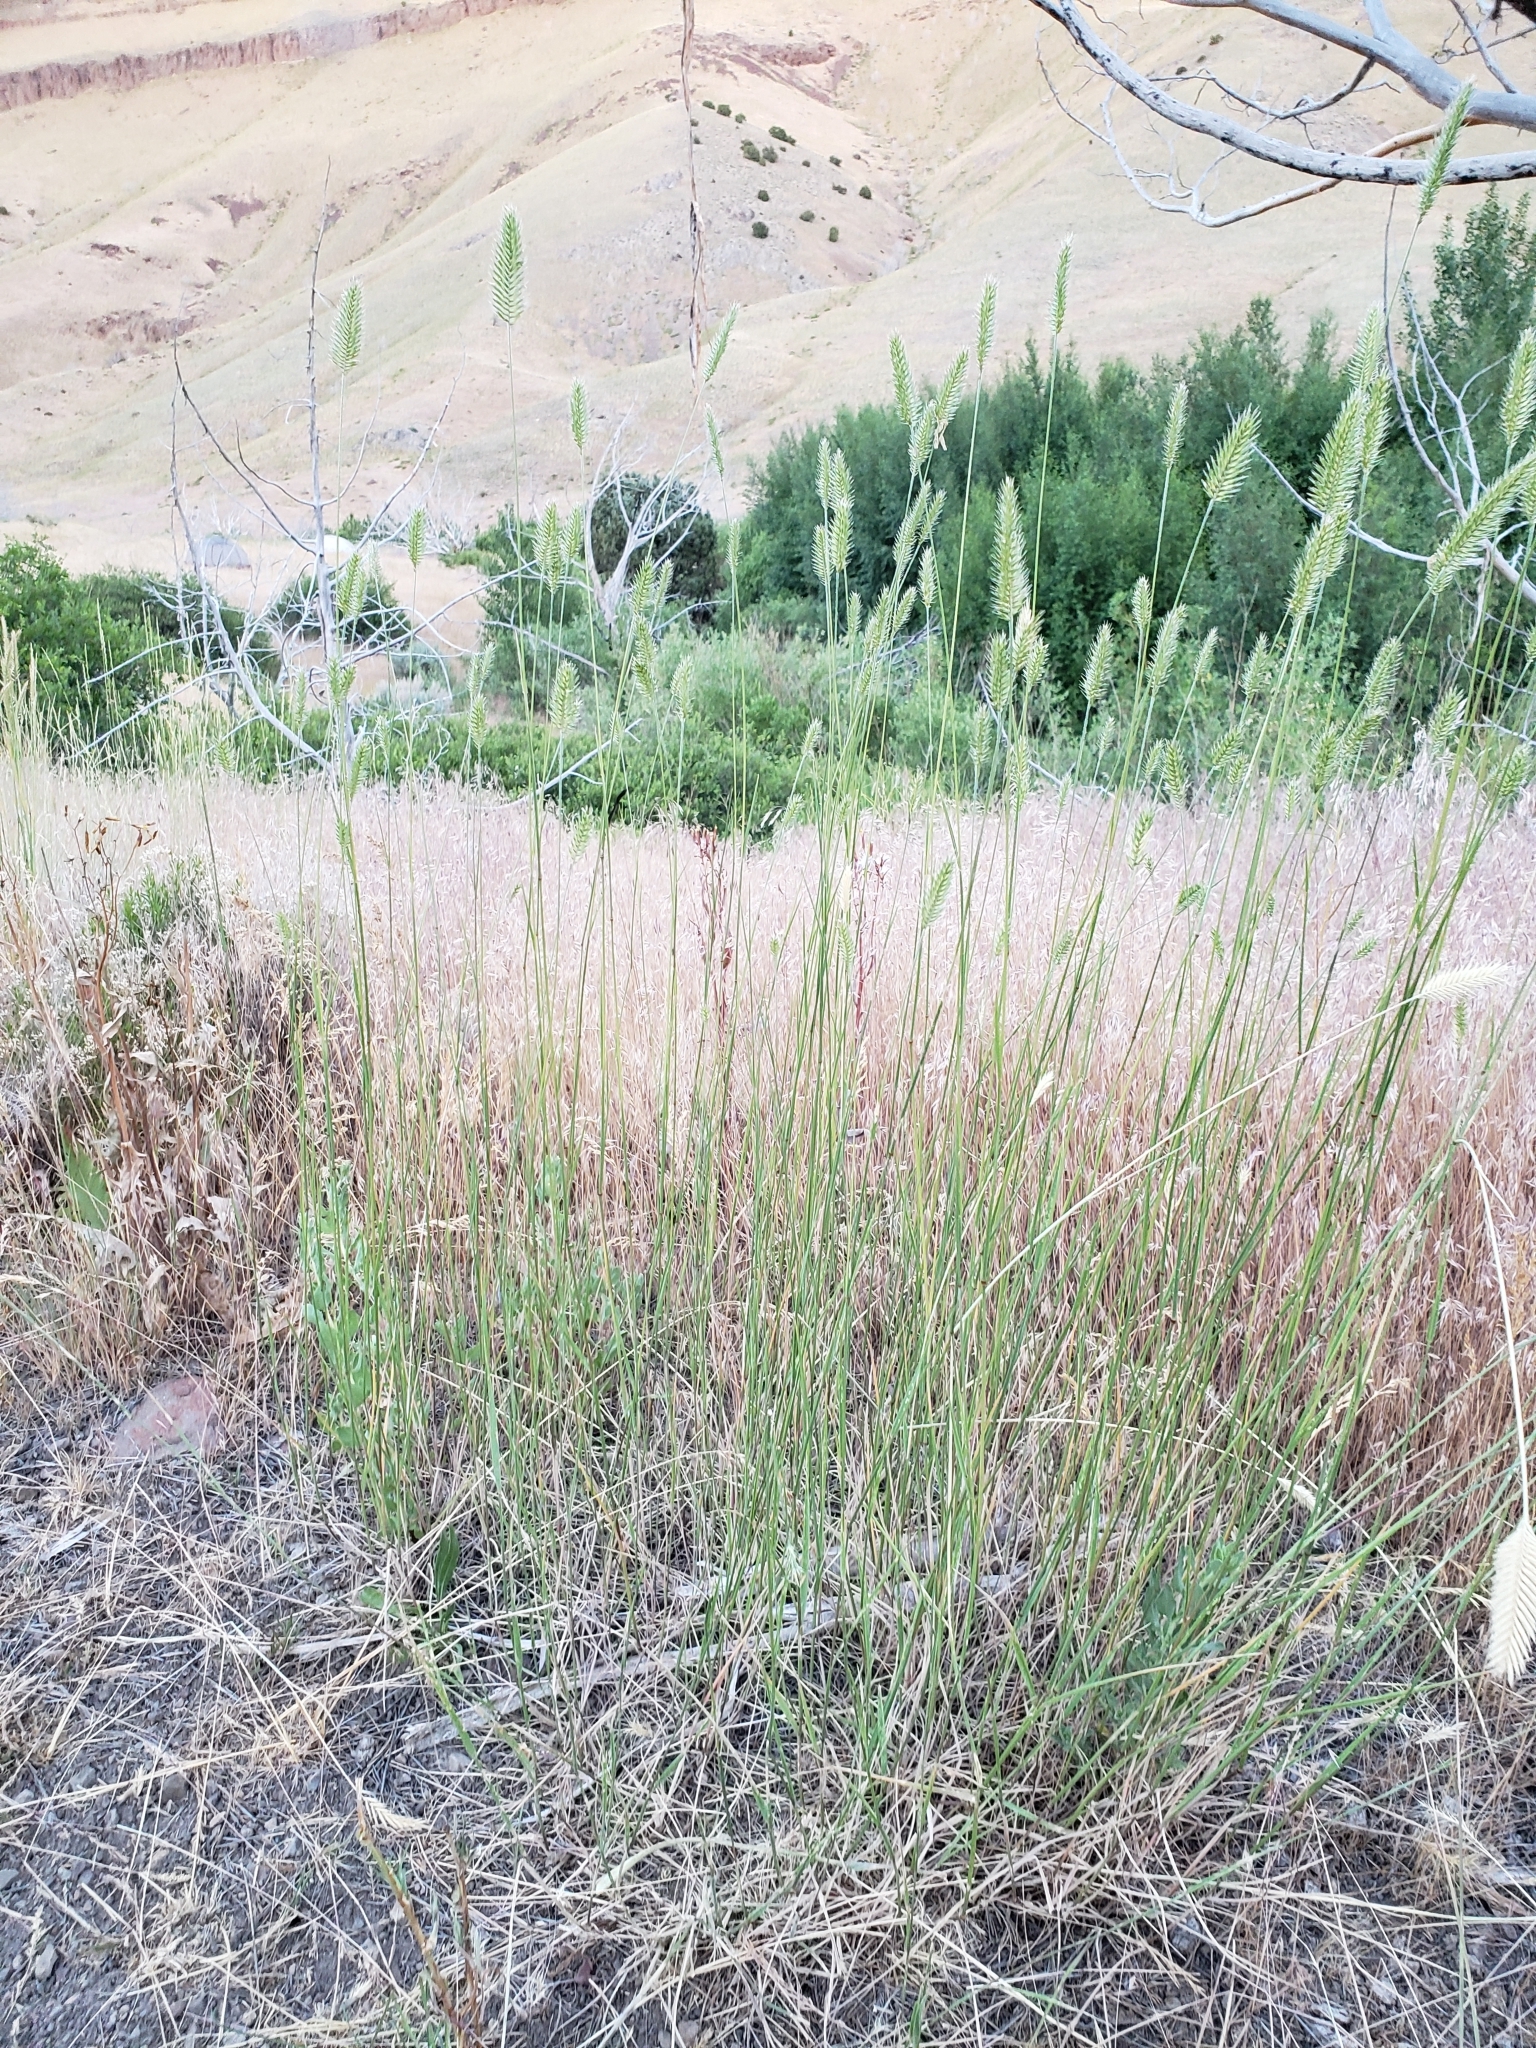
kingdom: Plantae
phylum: Tracheophyta
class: Liliopsida
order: Poales
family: Poaceae
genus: Agropyron
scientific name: Agropyron cristatum
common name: Crested wheatgrass
